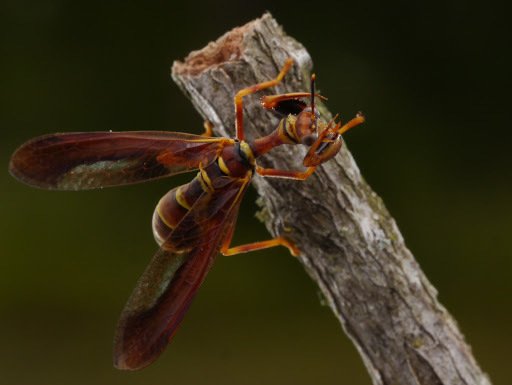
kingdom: Animalia
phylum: Arthropoda
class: Insecta
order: Neuroptera
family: Mantispidae
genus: Climaciella
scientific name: Climaciella brunnea
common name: Brown wasp mantidfly
